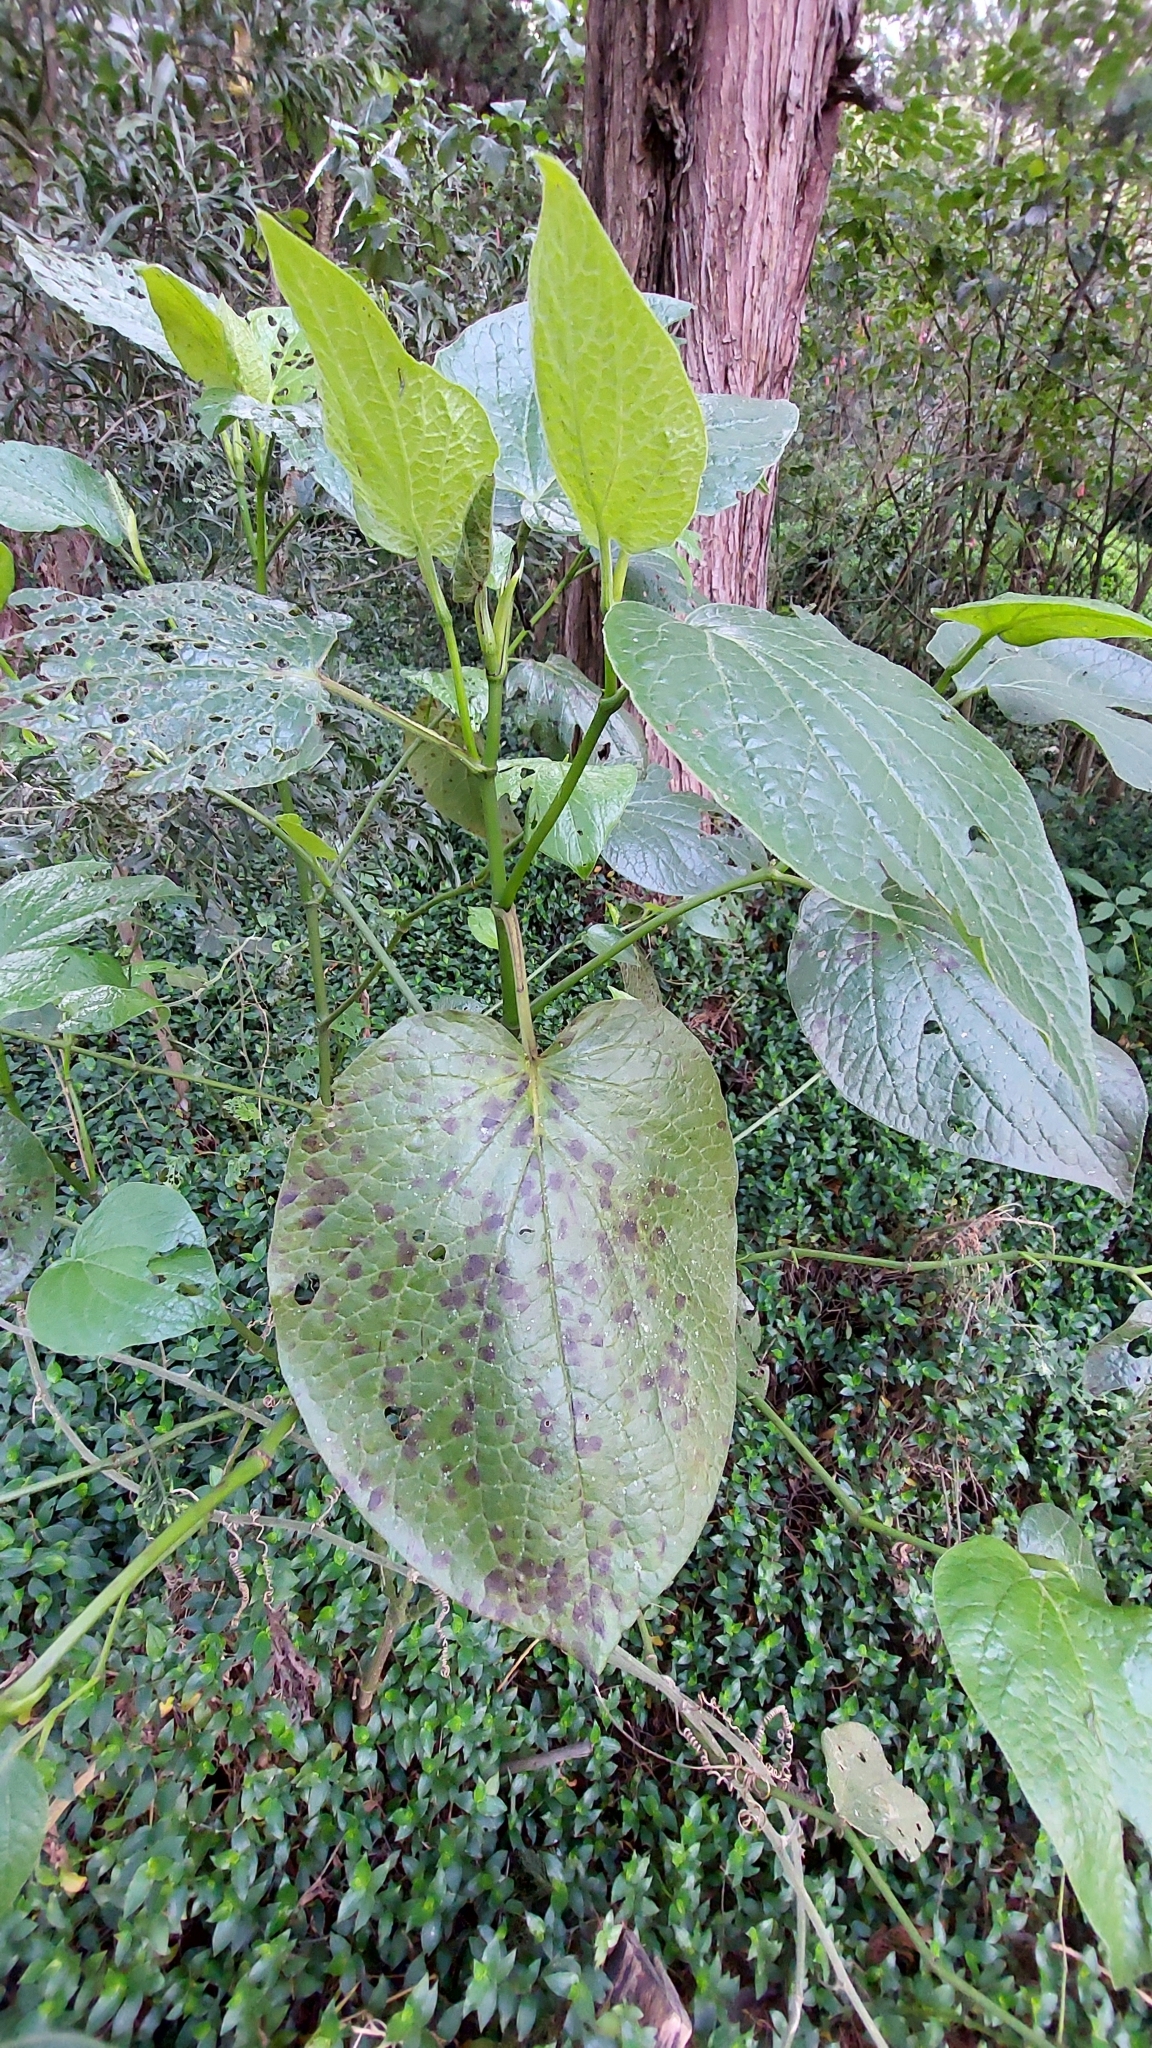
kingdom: Plantae
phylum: Tracheophyta
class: Magnoliopsida
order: Piperales
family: Piperaceae
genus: Piper
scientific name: Piper barbatum
